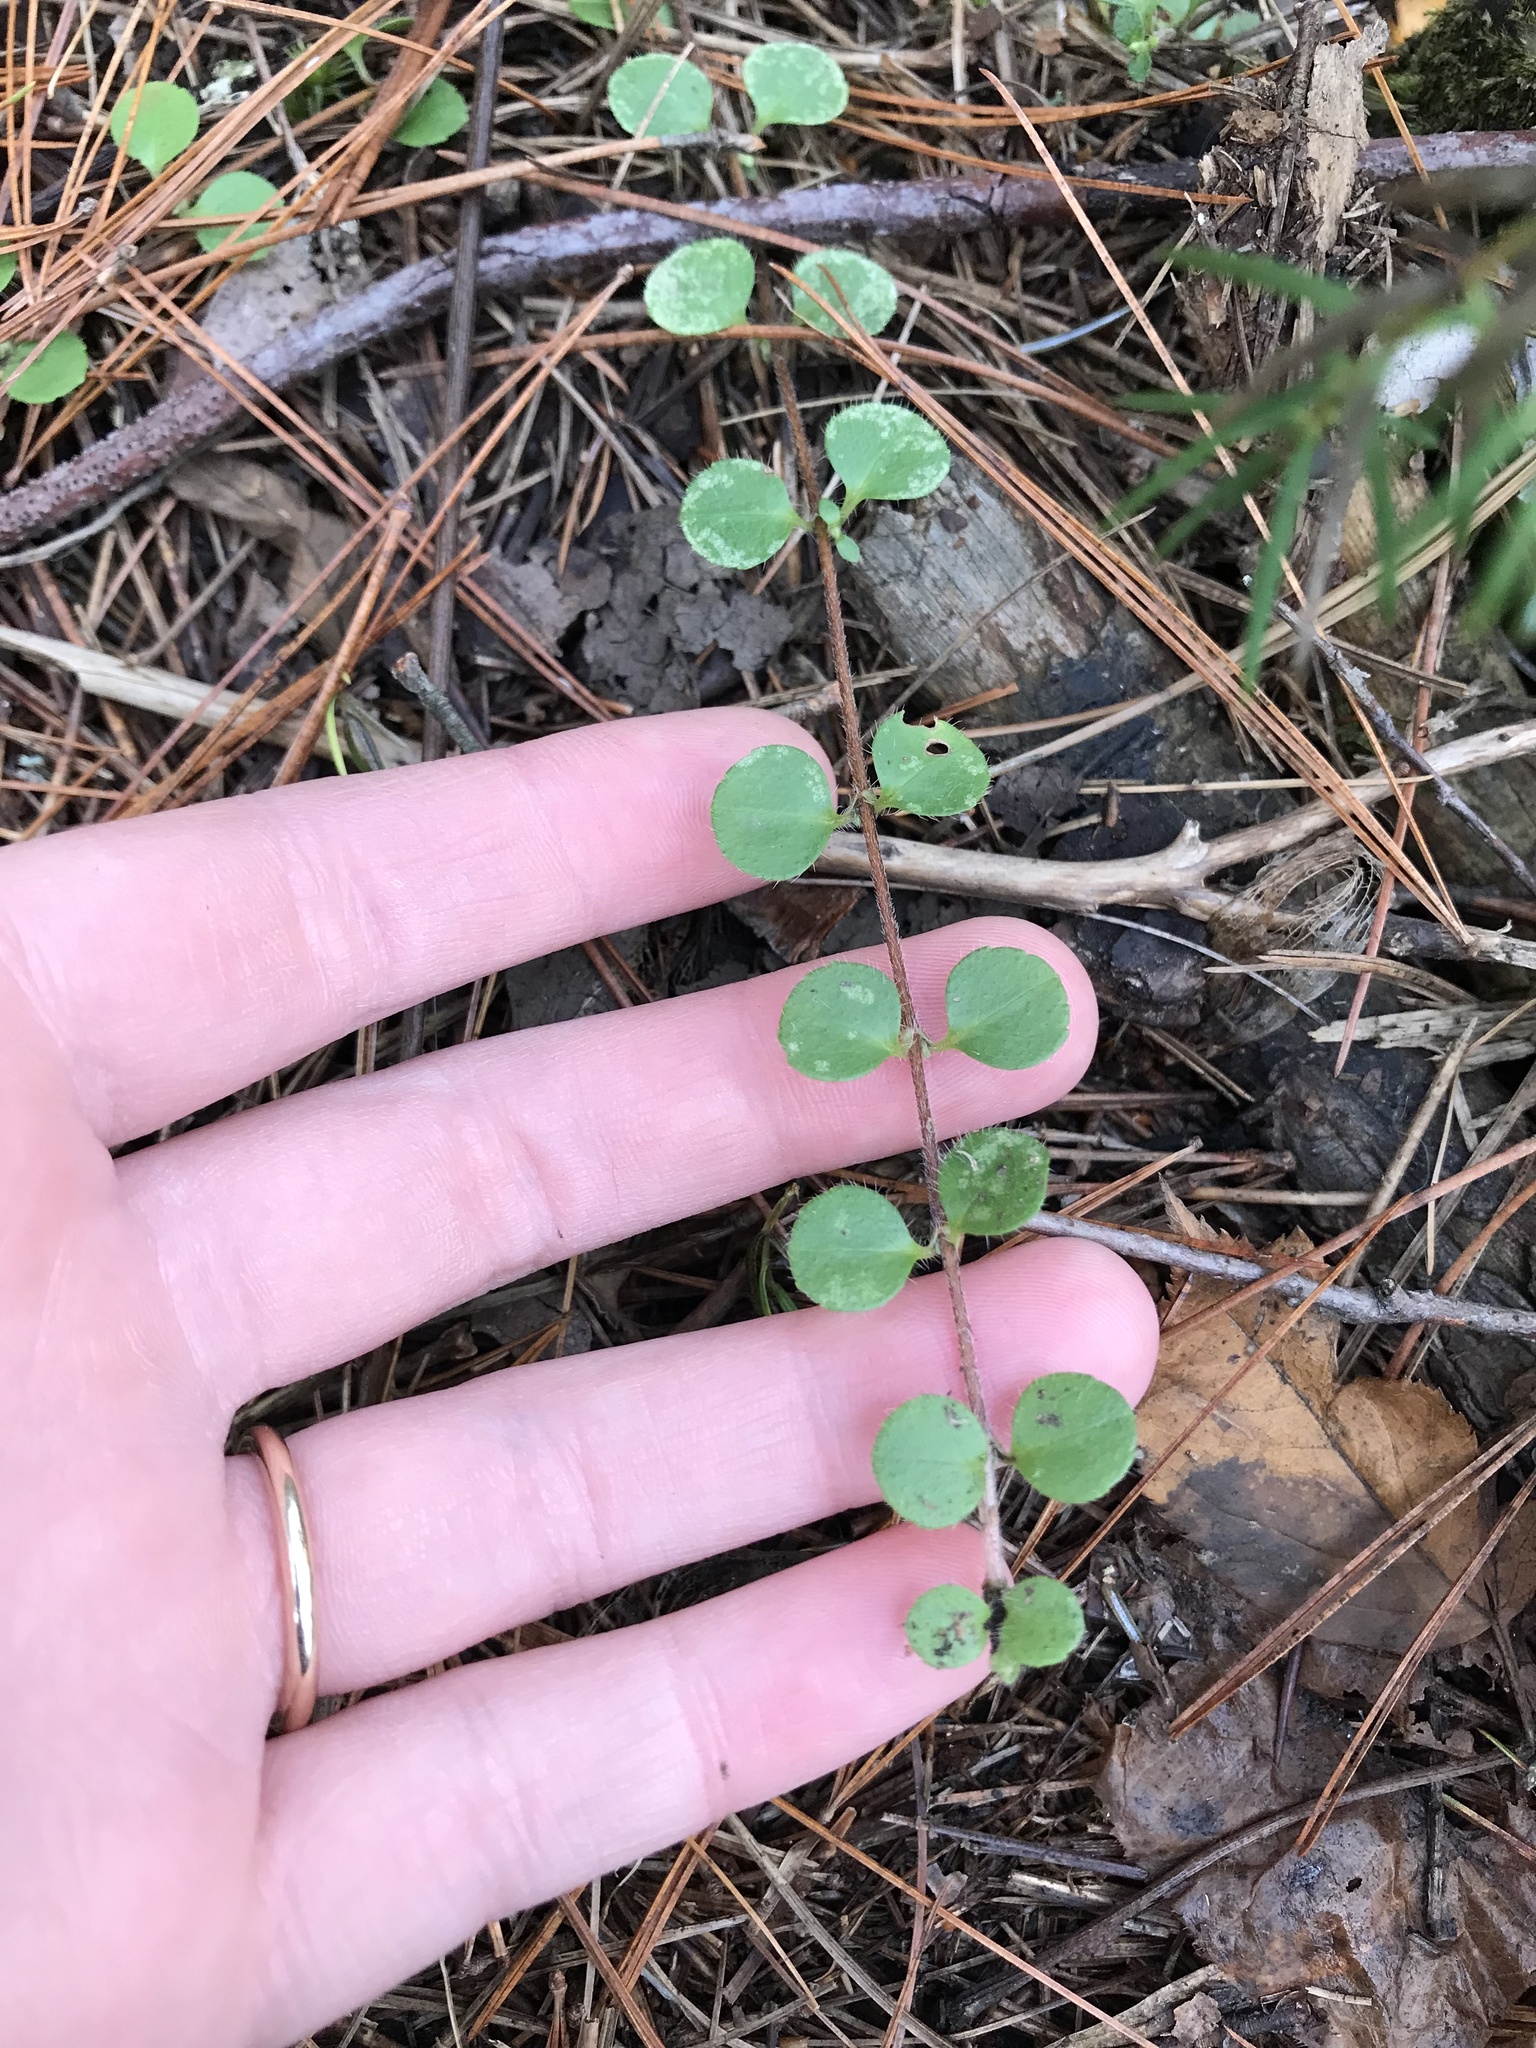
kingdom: Plantae
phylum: Tracheophyta
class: Magnoliopsida
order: Dipsacales
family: Caprifoliaceae
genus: Linnaea
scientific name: Linnaea borealis
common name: Twinflower
